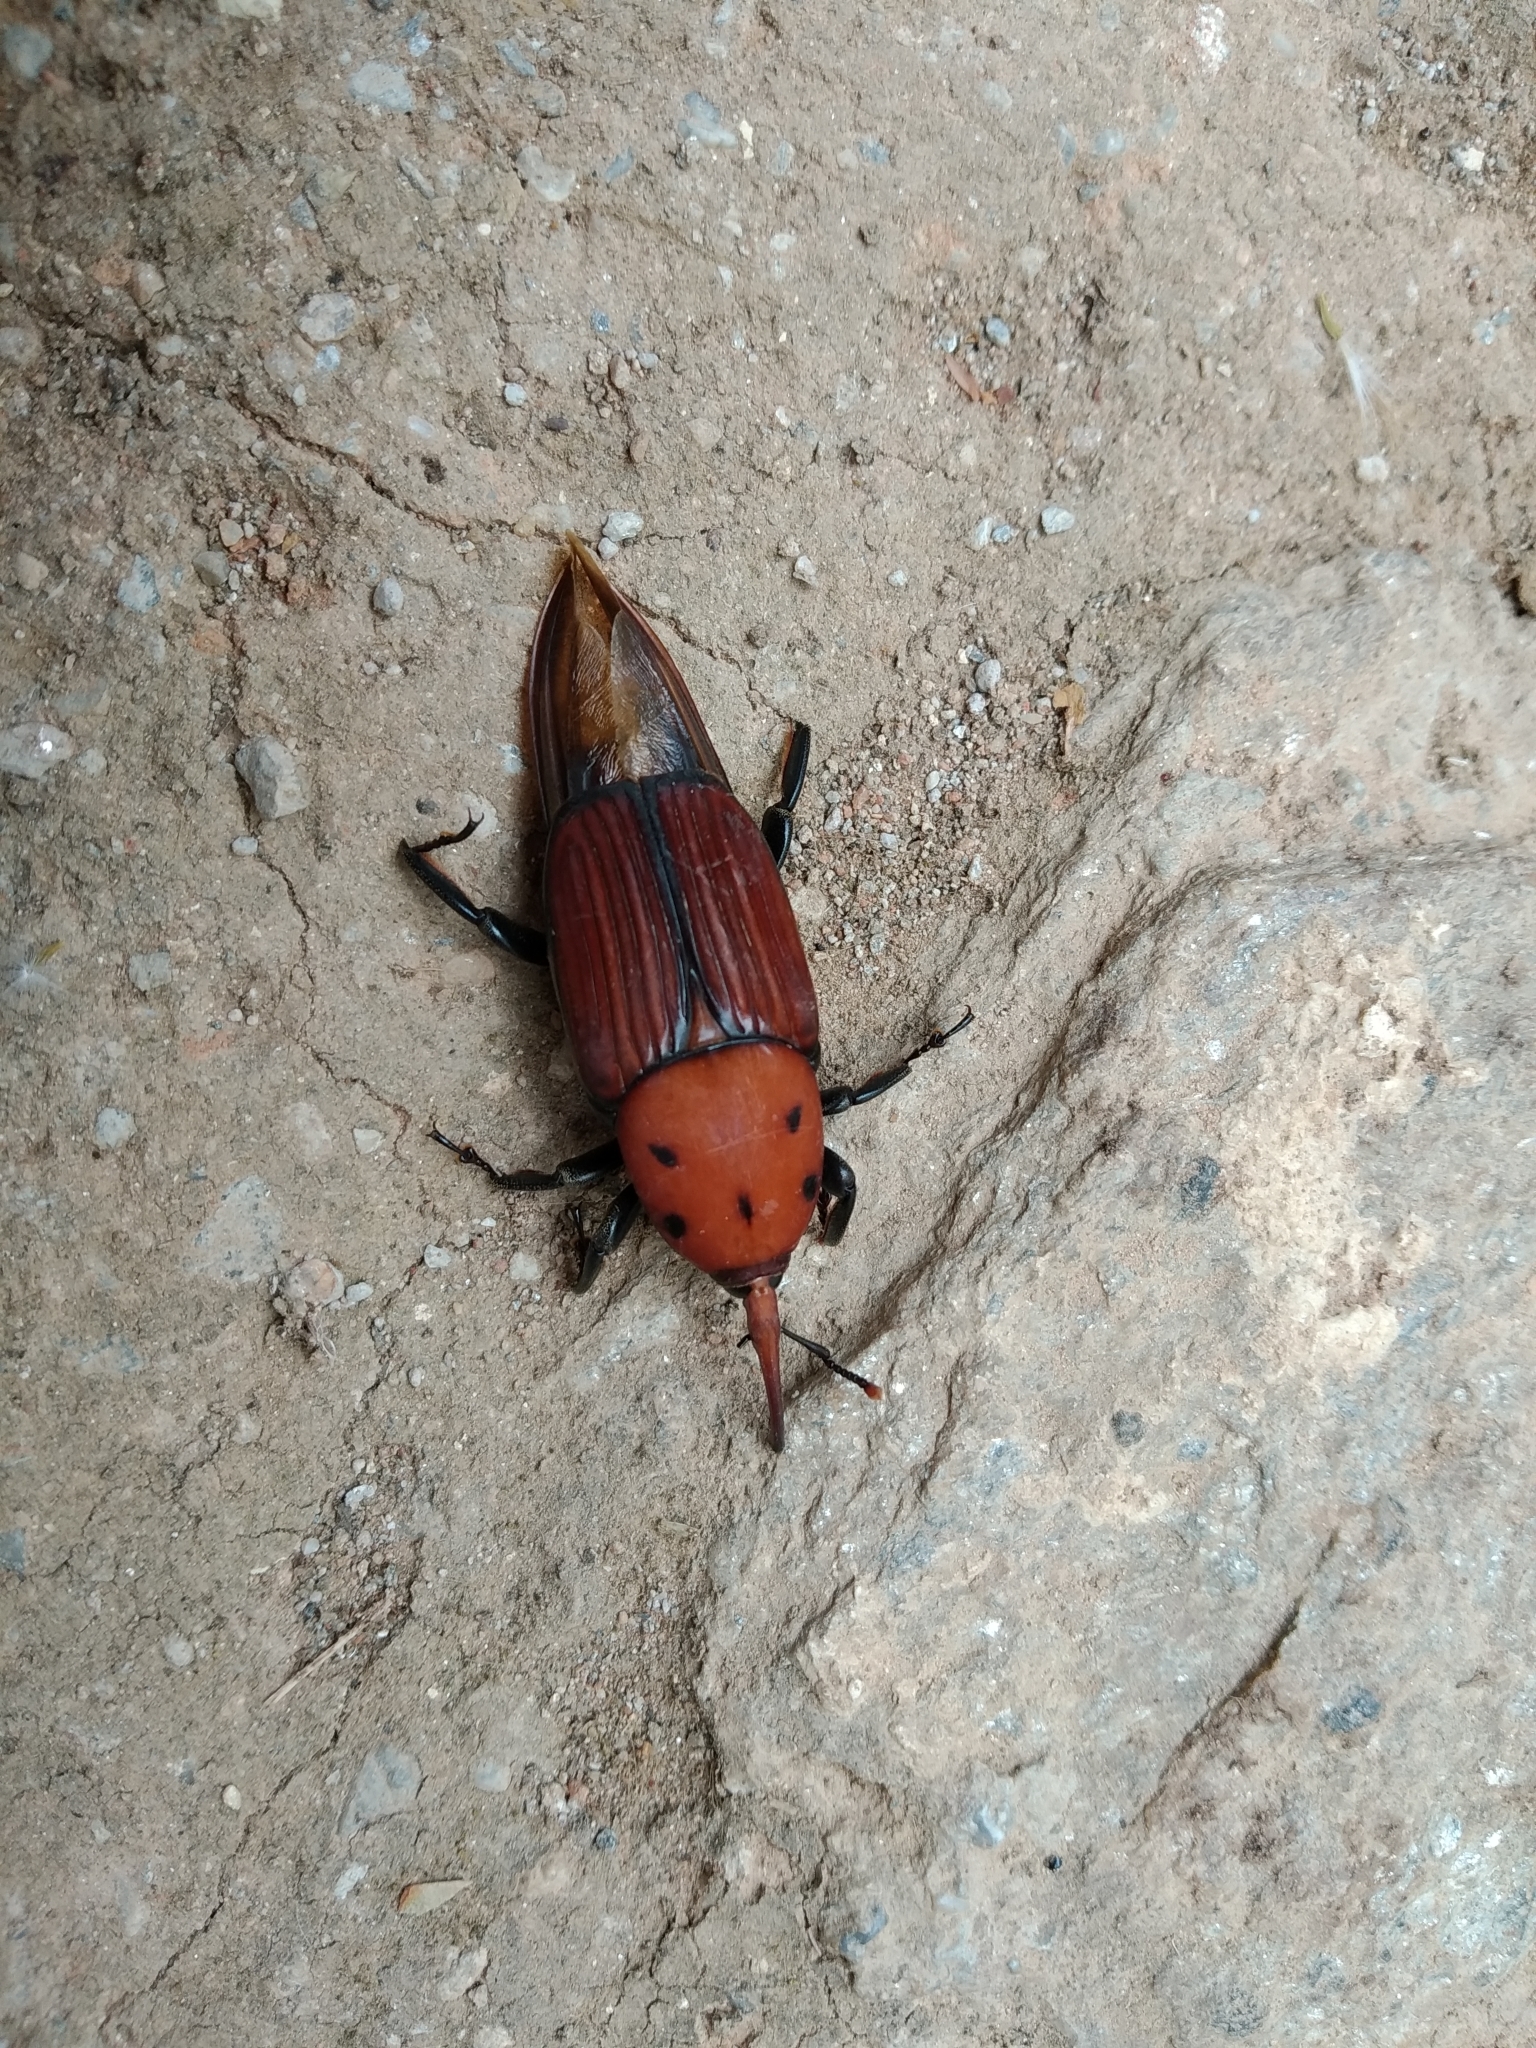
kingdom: Animalia
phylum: Arthropoda
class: Insecta
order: Coleoptera
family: Dryophthoridae
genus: Rhynchophorus
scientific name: Rhynchophorus ferrugineus
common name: Red palm weevil
